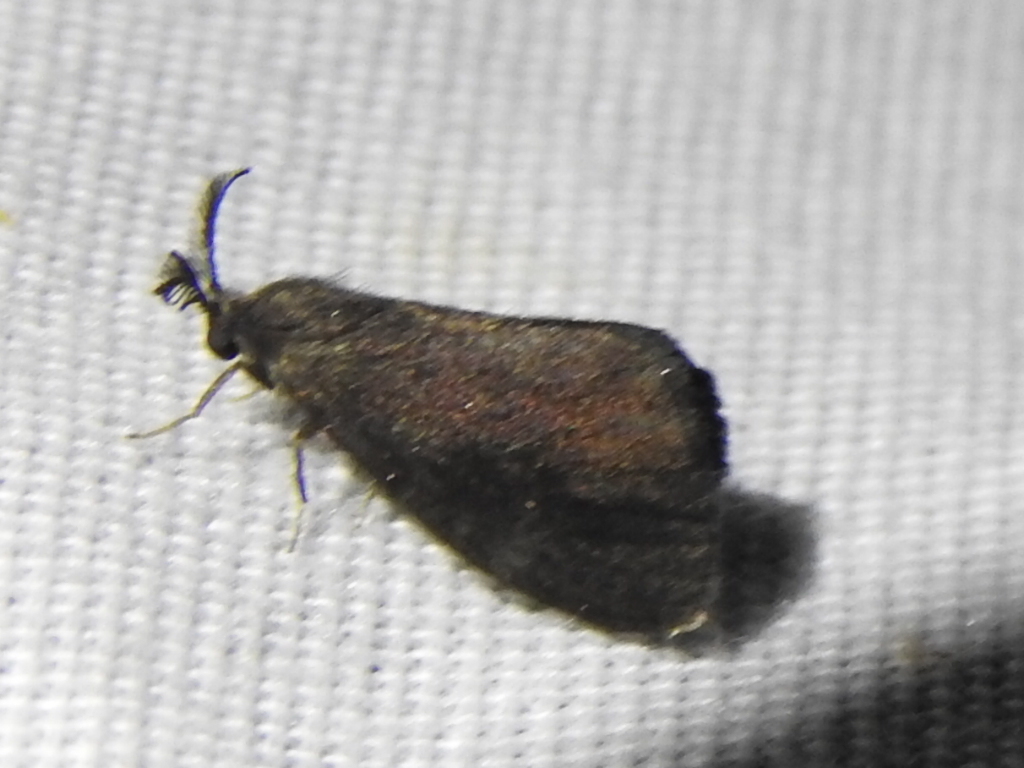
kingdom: Animalia
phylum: Arthropoda
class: Insecta
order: Lepidoptera
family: Psychidae
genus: Cryptothelea
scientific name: Cryptothelea gloverii
